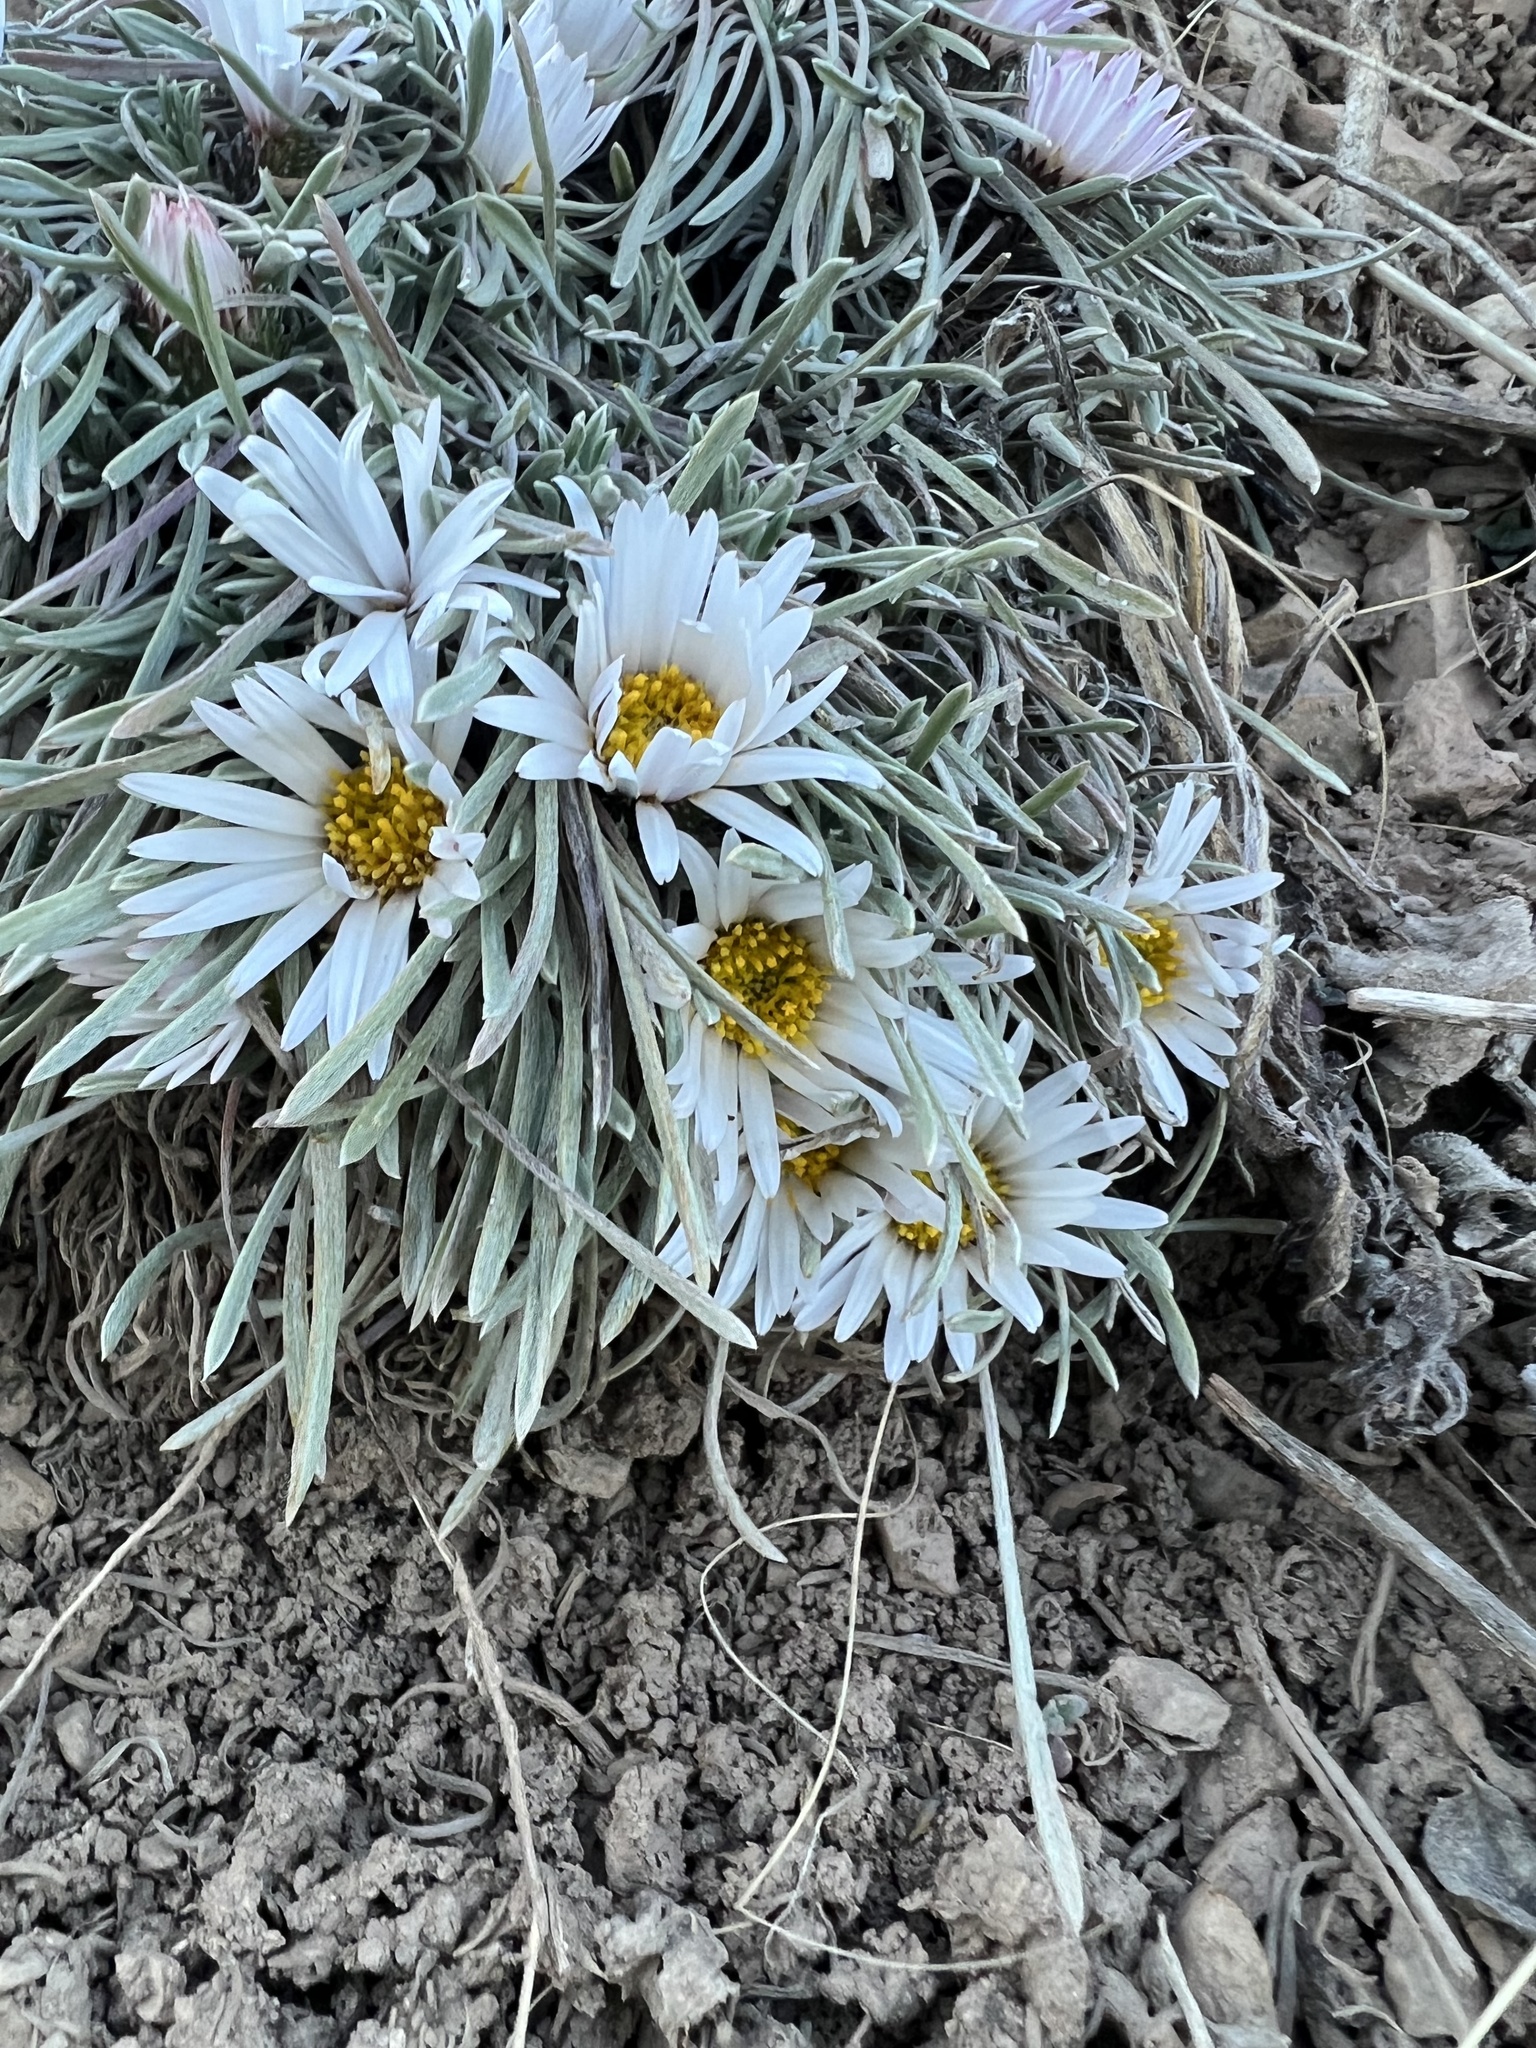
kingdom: Plantae
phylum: Tracheophyta
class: Magnoliopsida
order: Asterales
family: Asteraceae
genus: Townsendia
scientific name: Townsendia hookeri
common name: Hooker's townsend daisy
